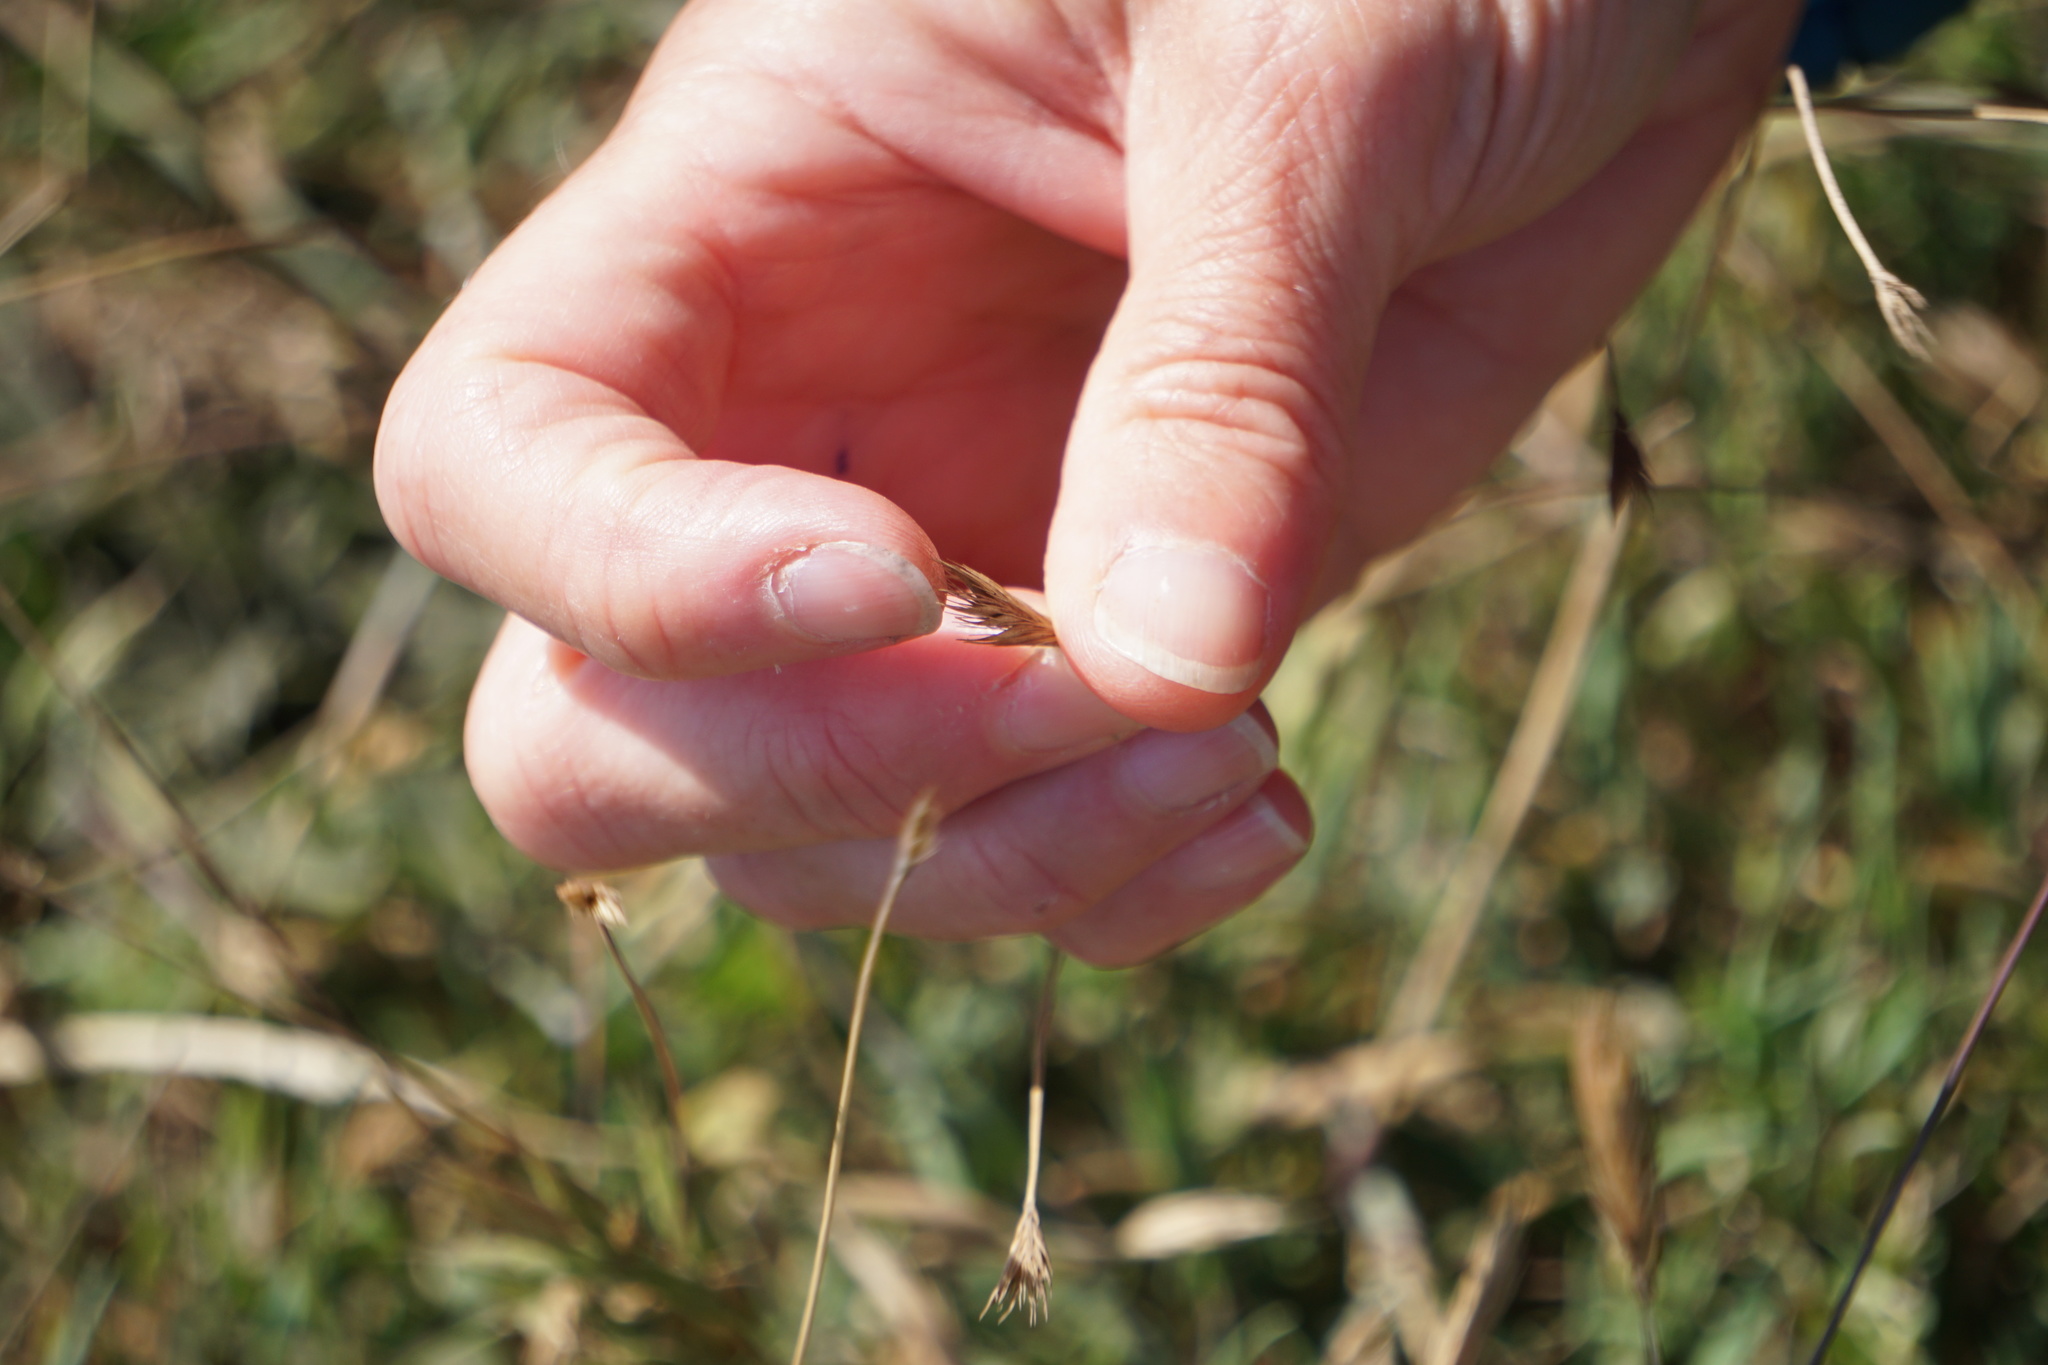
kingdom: Plantae
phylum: Tracheophyta
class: Liliopsida
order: Poales
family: Poaceae
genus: Hordeum
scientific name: Hordeum californicum
